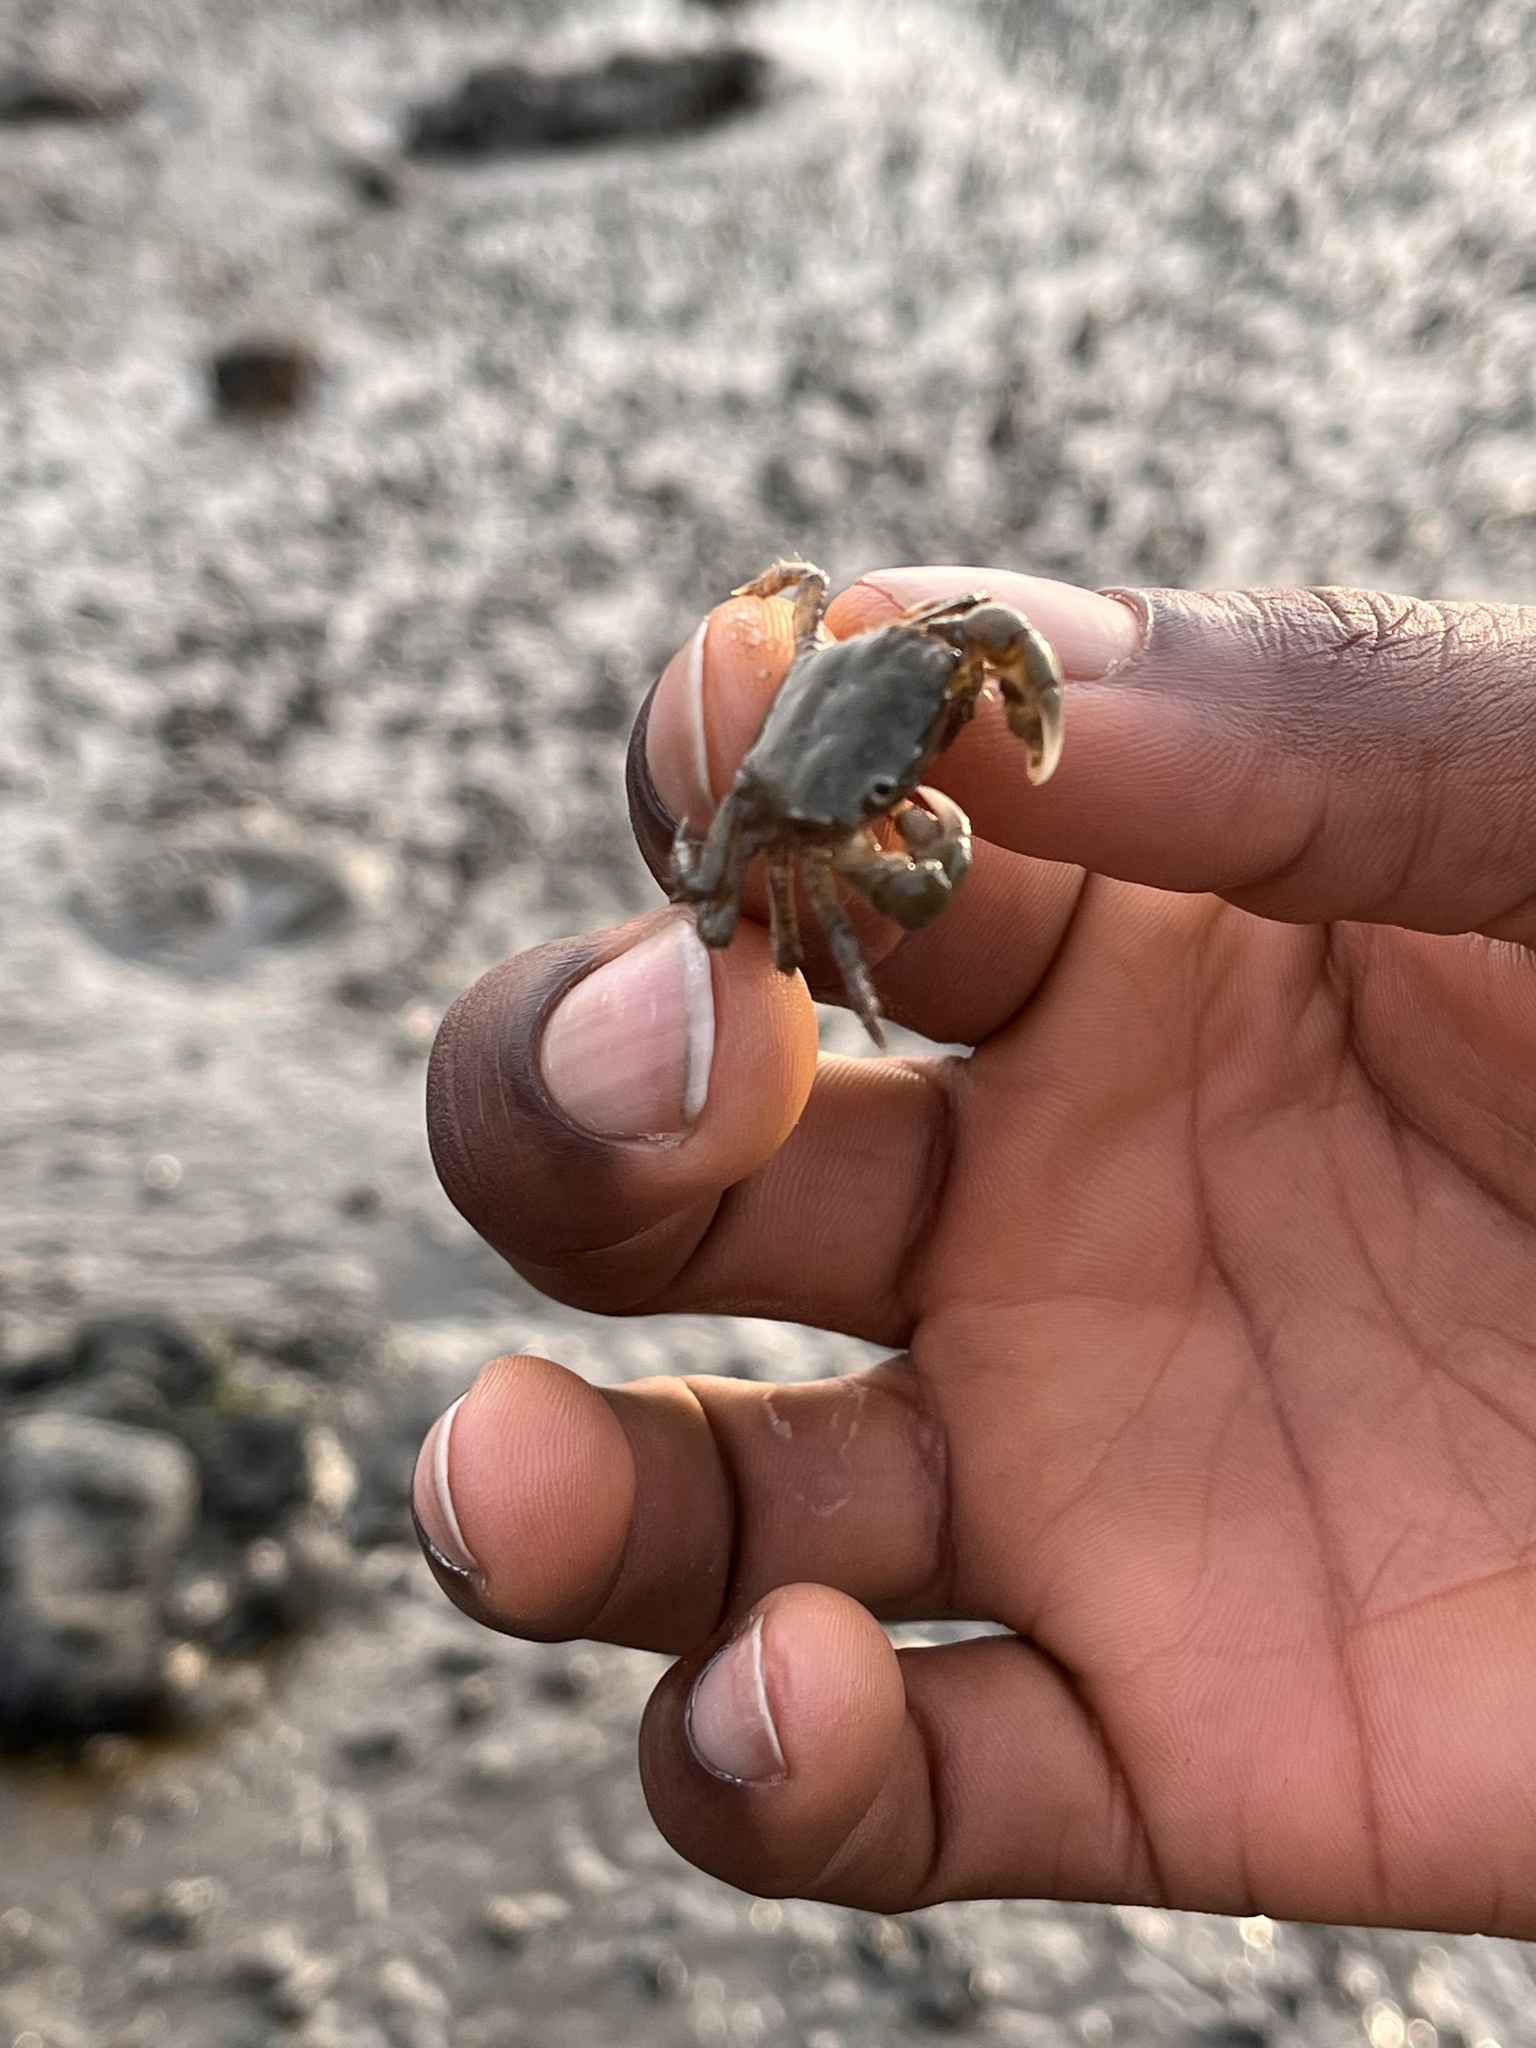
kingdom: Animalia
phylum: Arthropoda
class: Malacostraca
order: Decapoda
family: Varunidae
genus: Hemigrapsus
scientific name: Hemigrapsus oregonensis
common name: Yellow shore crab
